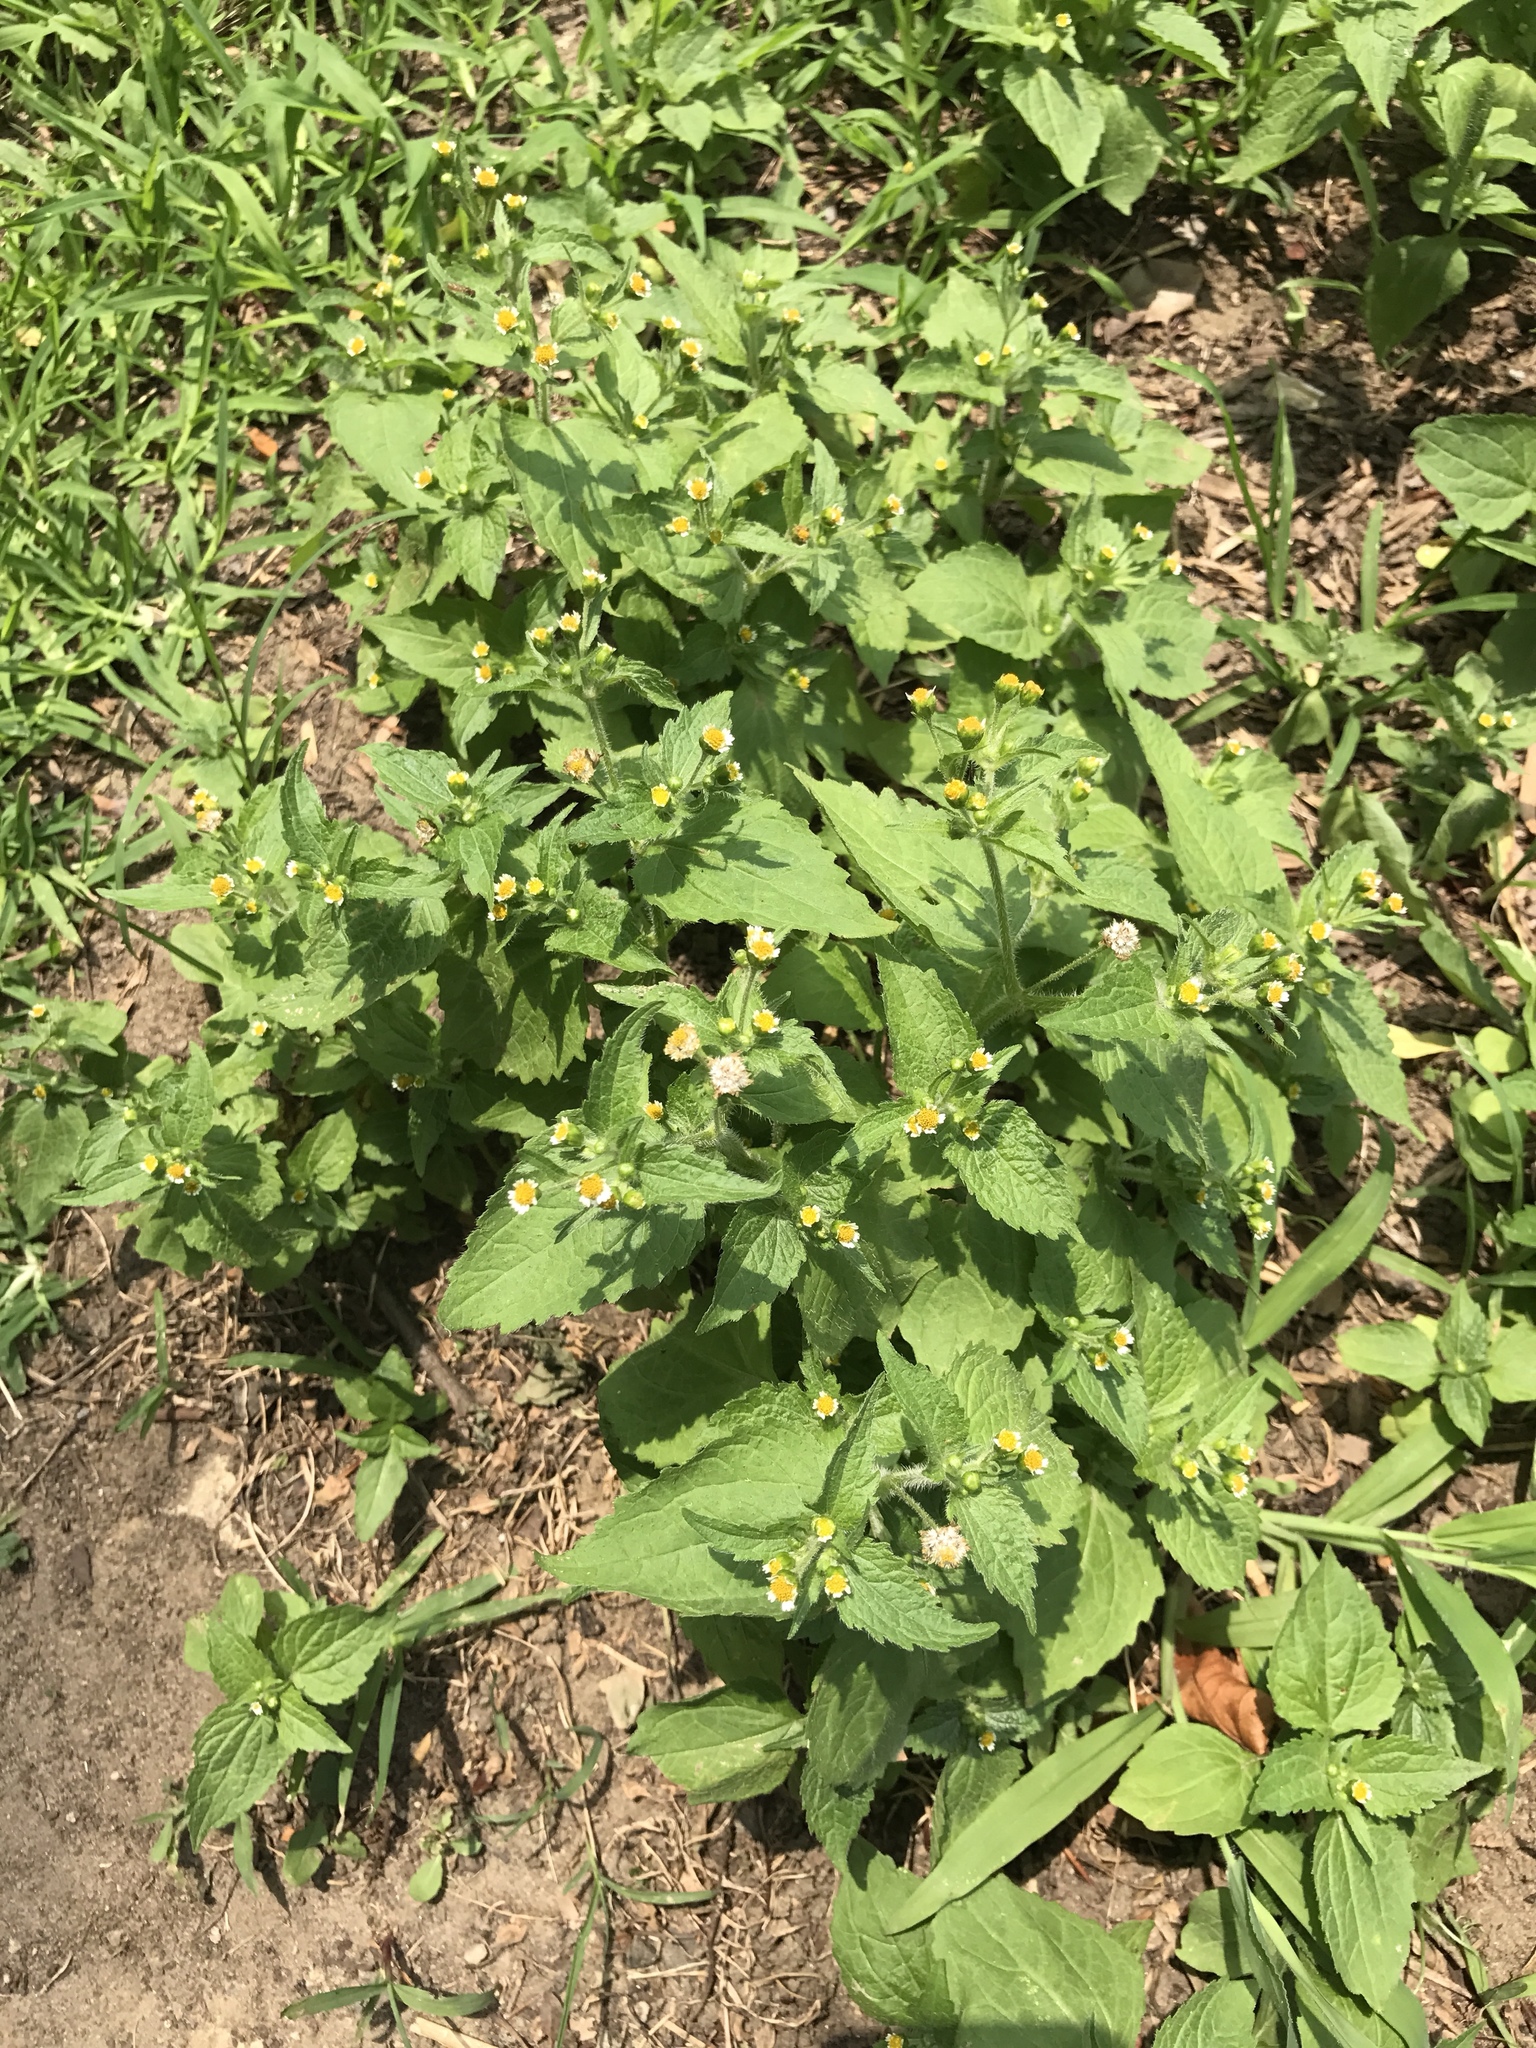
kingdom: Plantae
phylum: Tracheophyta
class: Magnoliopsida
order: Asterales
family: Asteraceae
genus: Galinsoga
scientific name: Galinsoga quadriradiata
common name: Shaggy soldier
